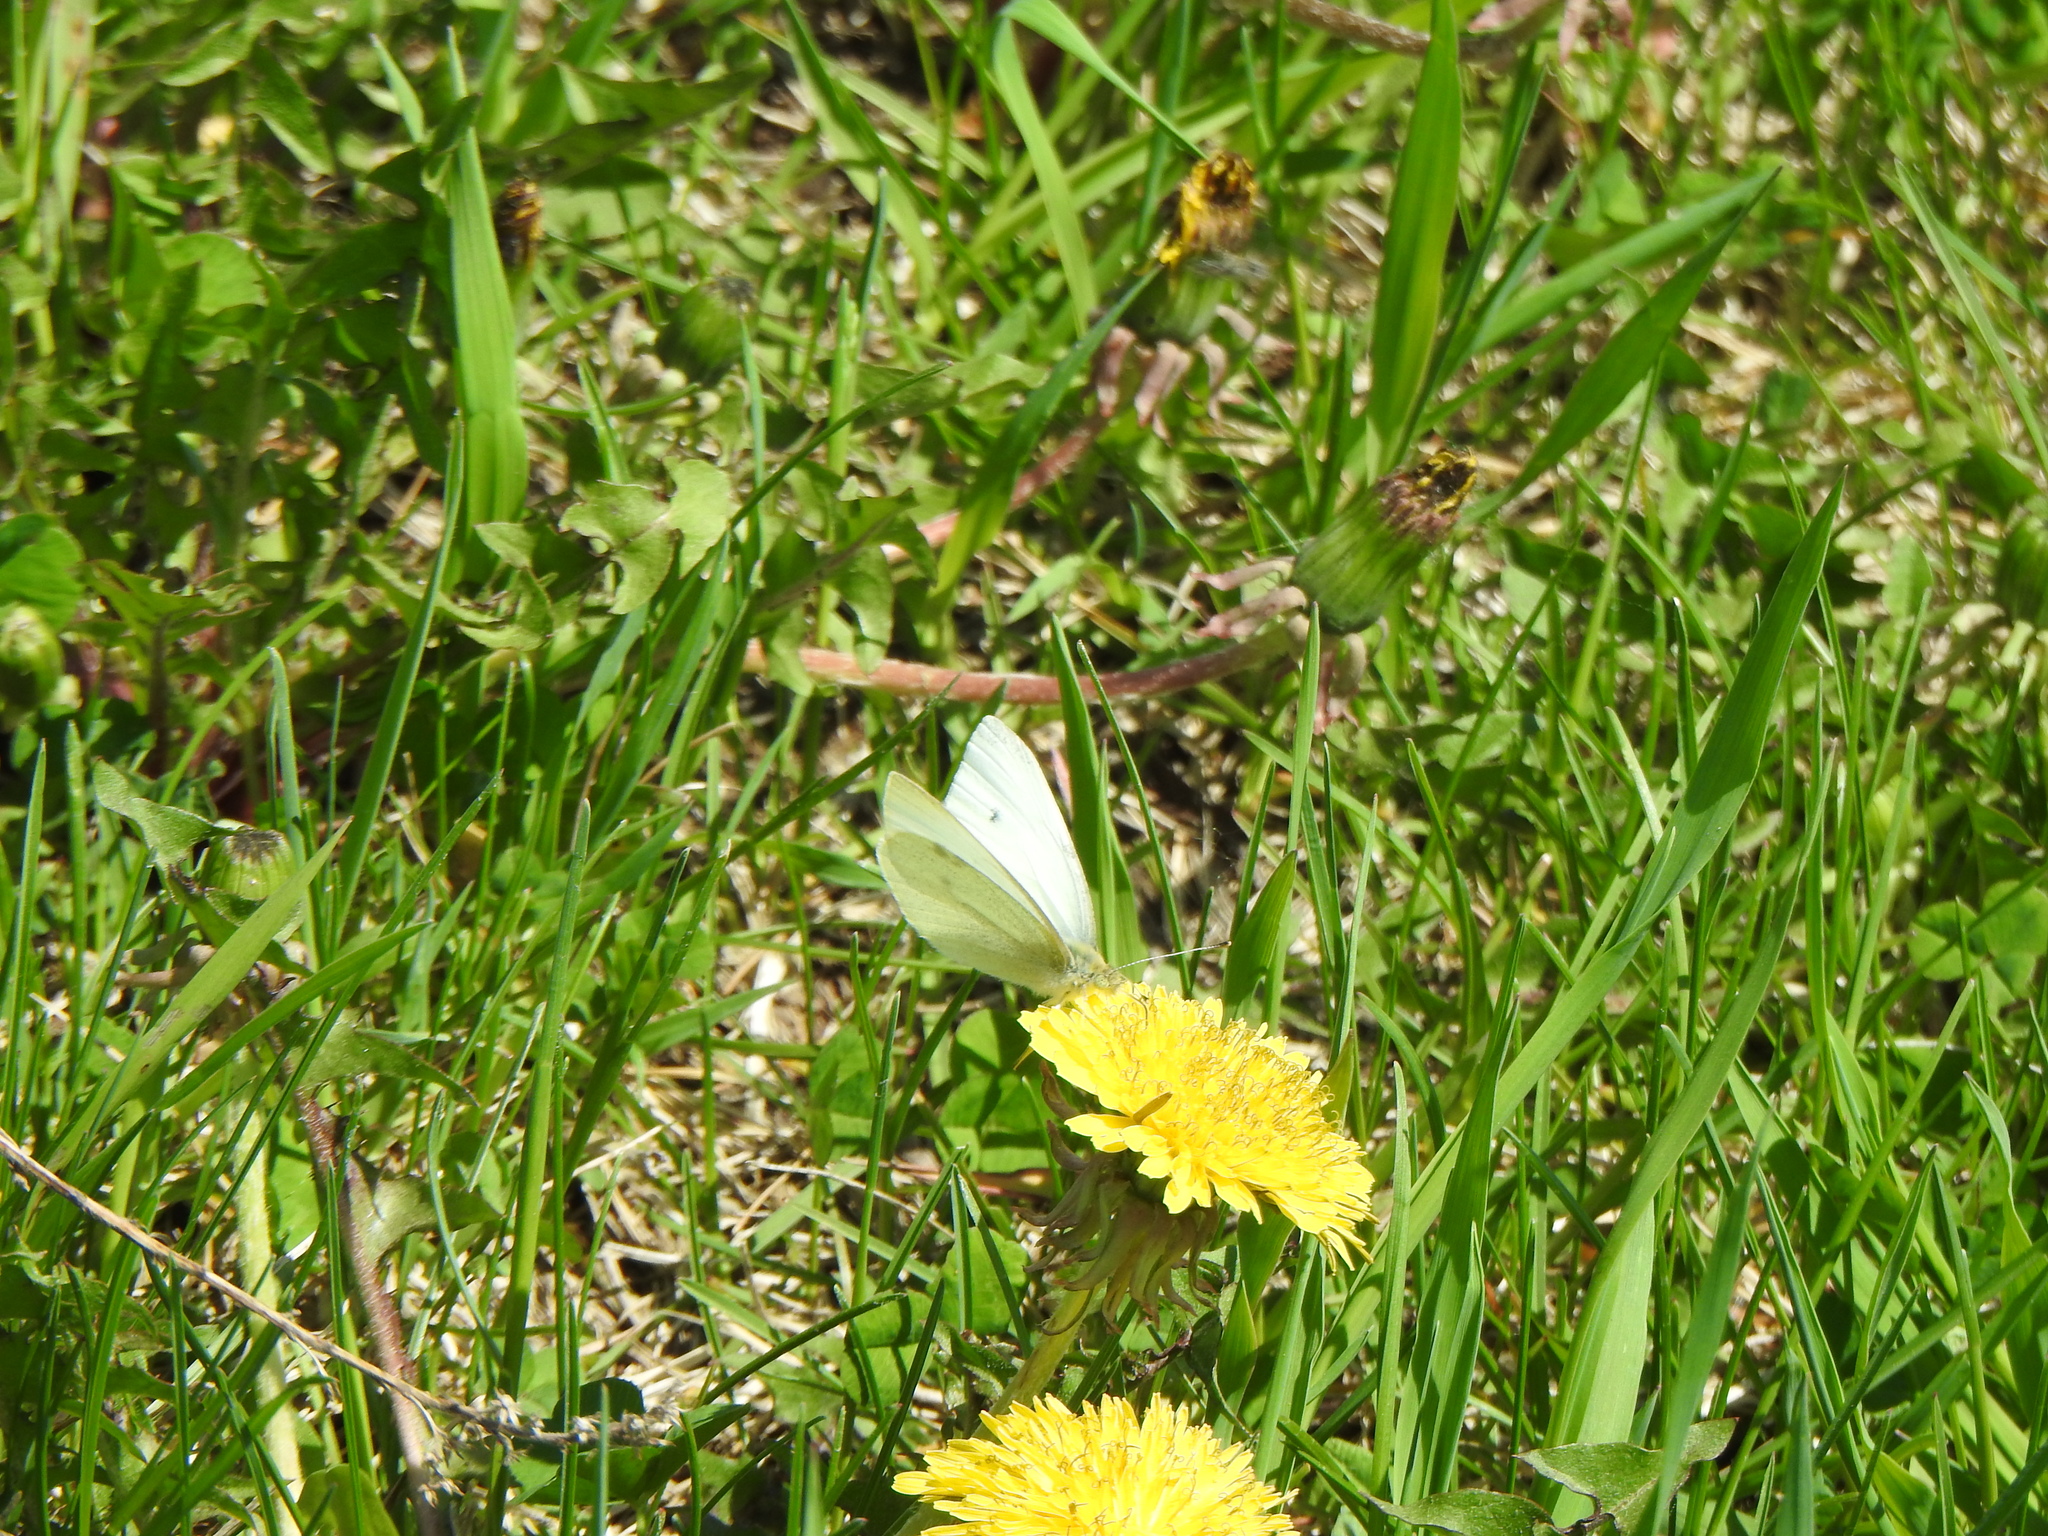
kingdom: Animalia
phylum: Arthropoda
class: Insecta
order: Lepidoptera
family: Pieridae
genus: Pieris
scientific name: Pieris rapae
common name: Small white
